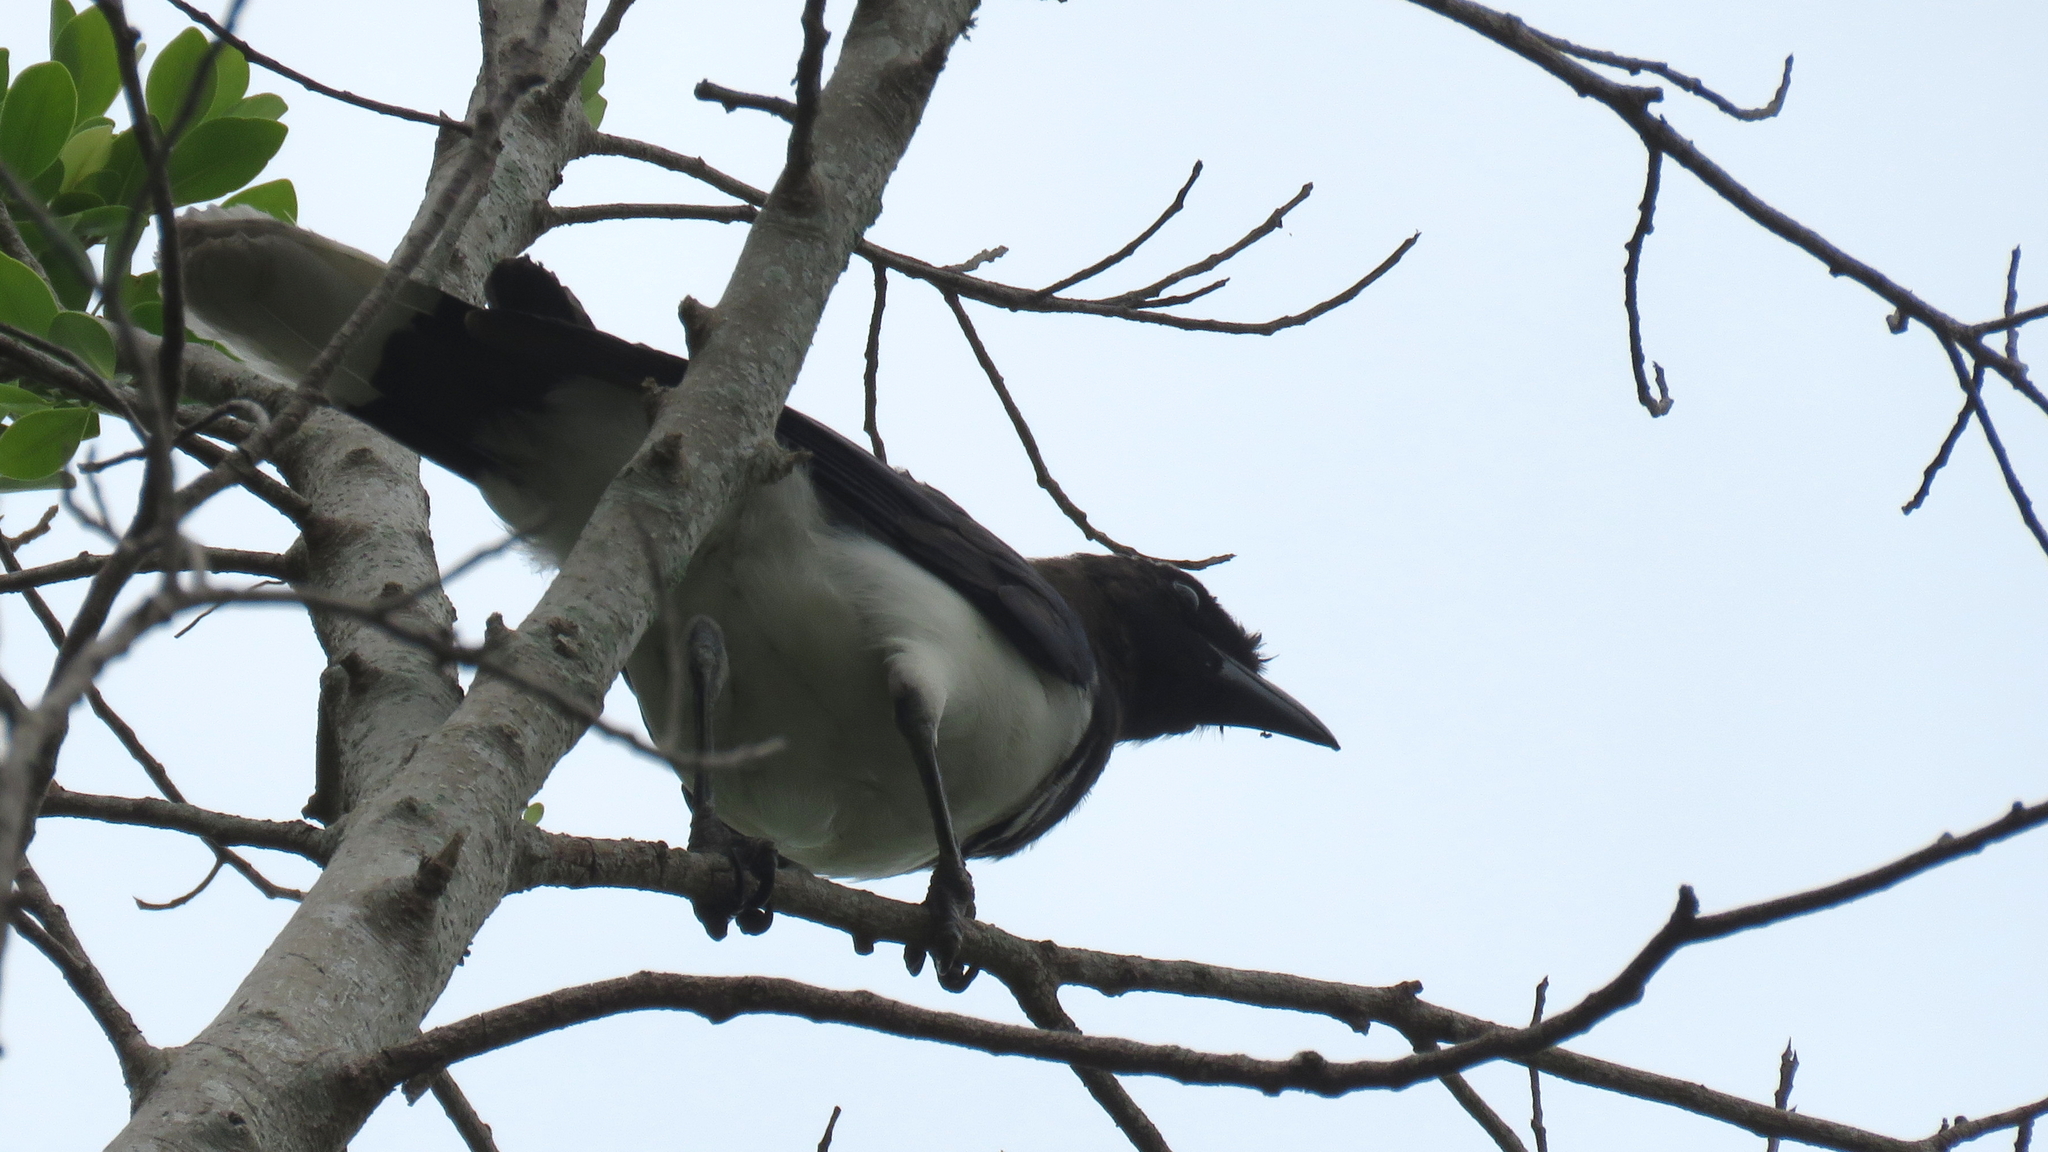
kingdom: Animalia
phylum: Chordata
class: Aves
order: Passeriformes
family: Corvidae
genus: Cyanocorax
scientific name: Cyanocorax cristatellus
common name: Curl-crested jay
